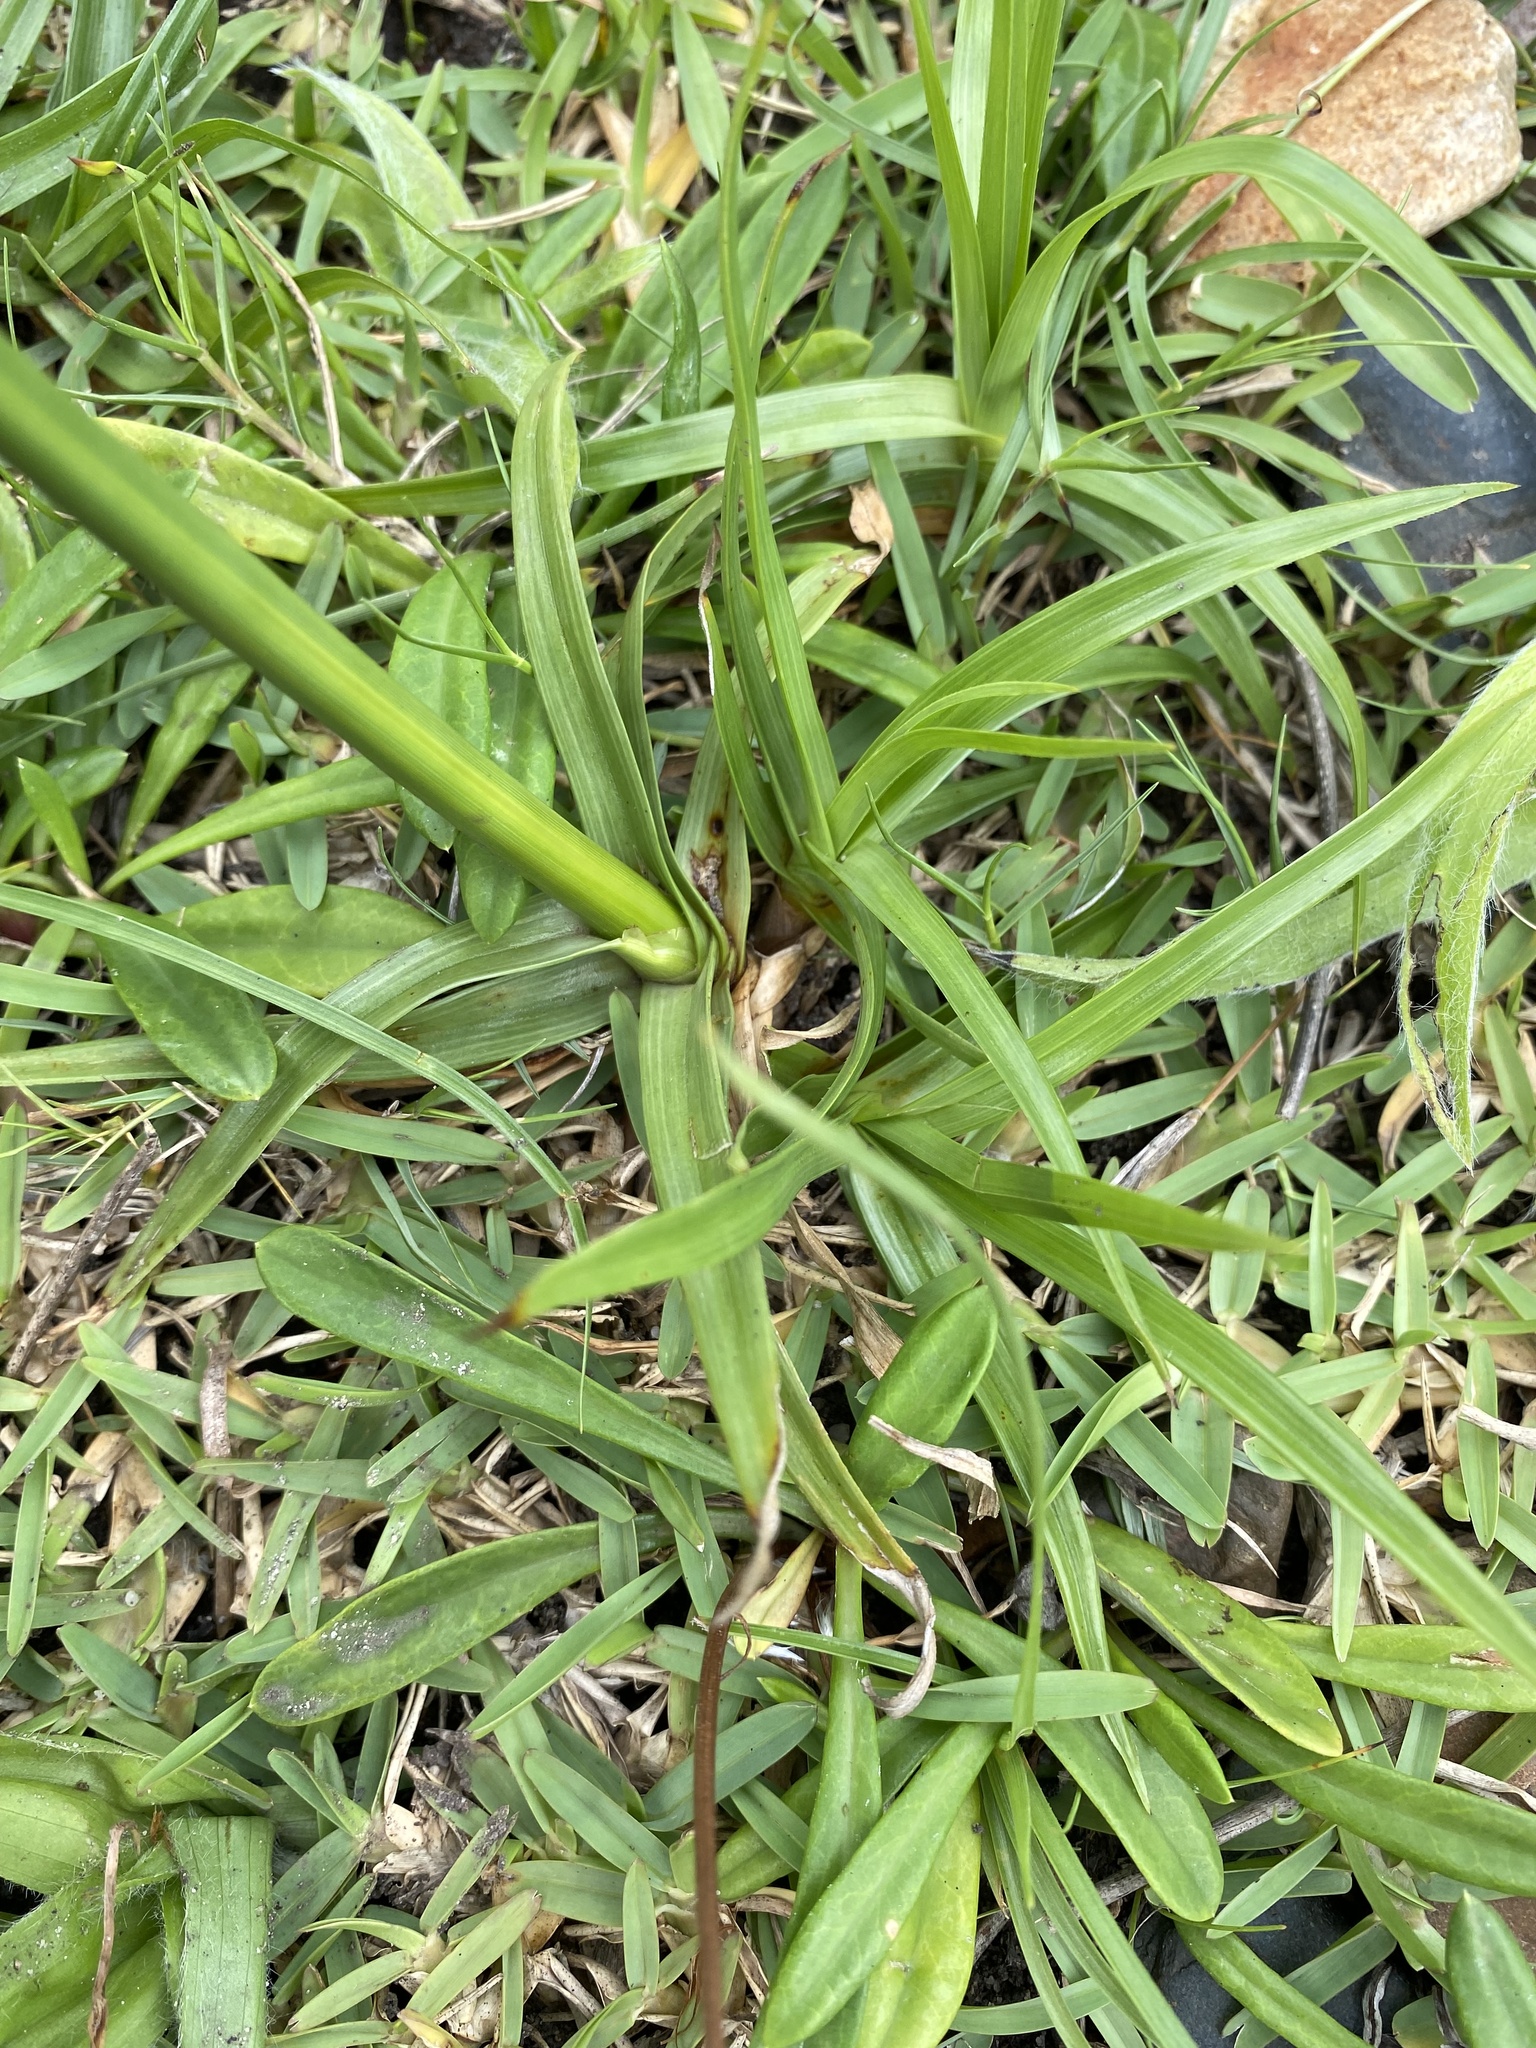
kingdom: Plantae
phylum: Tracheophyta
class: Liliopsida
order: Poales
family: Cyperaceae
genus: Cyperus
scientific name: Cyperus polystachyos
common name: Bunchy flat sedge
